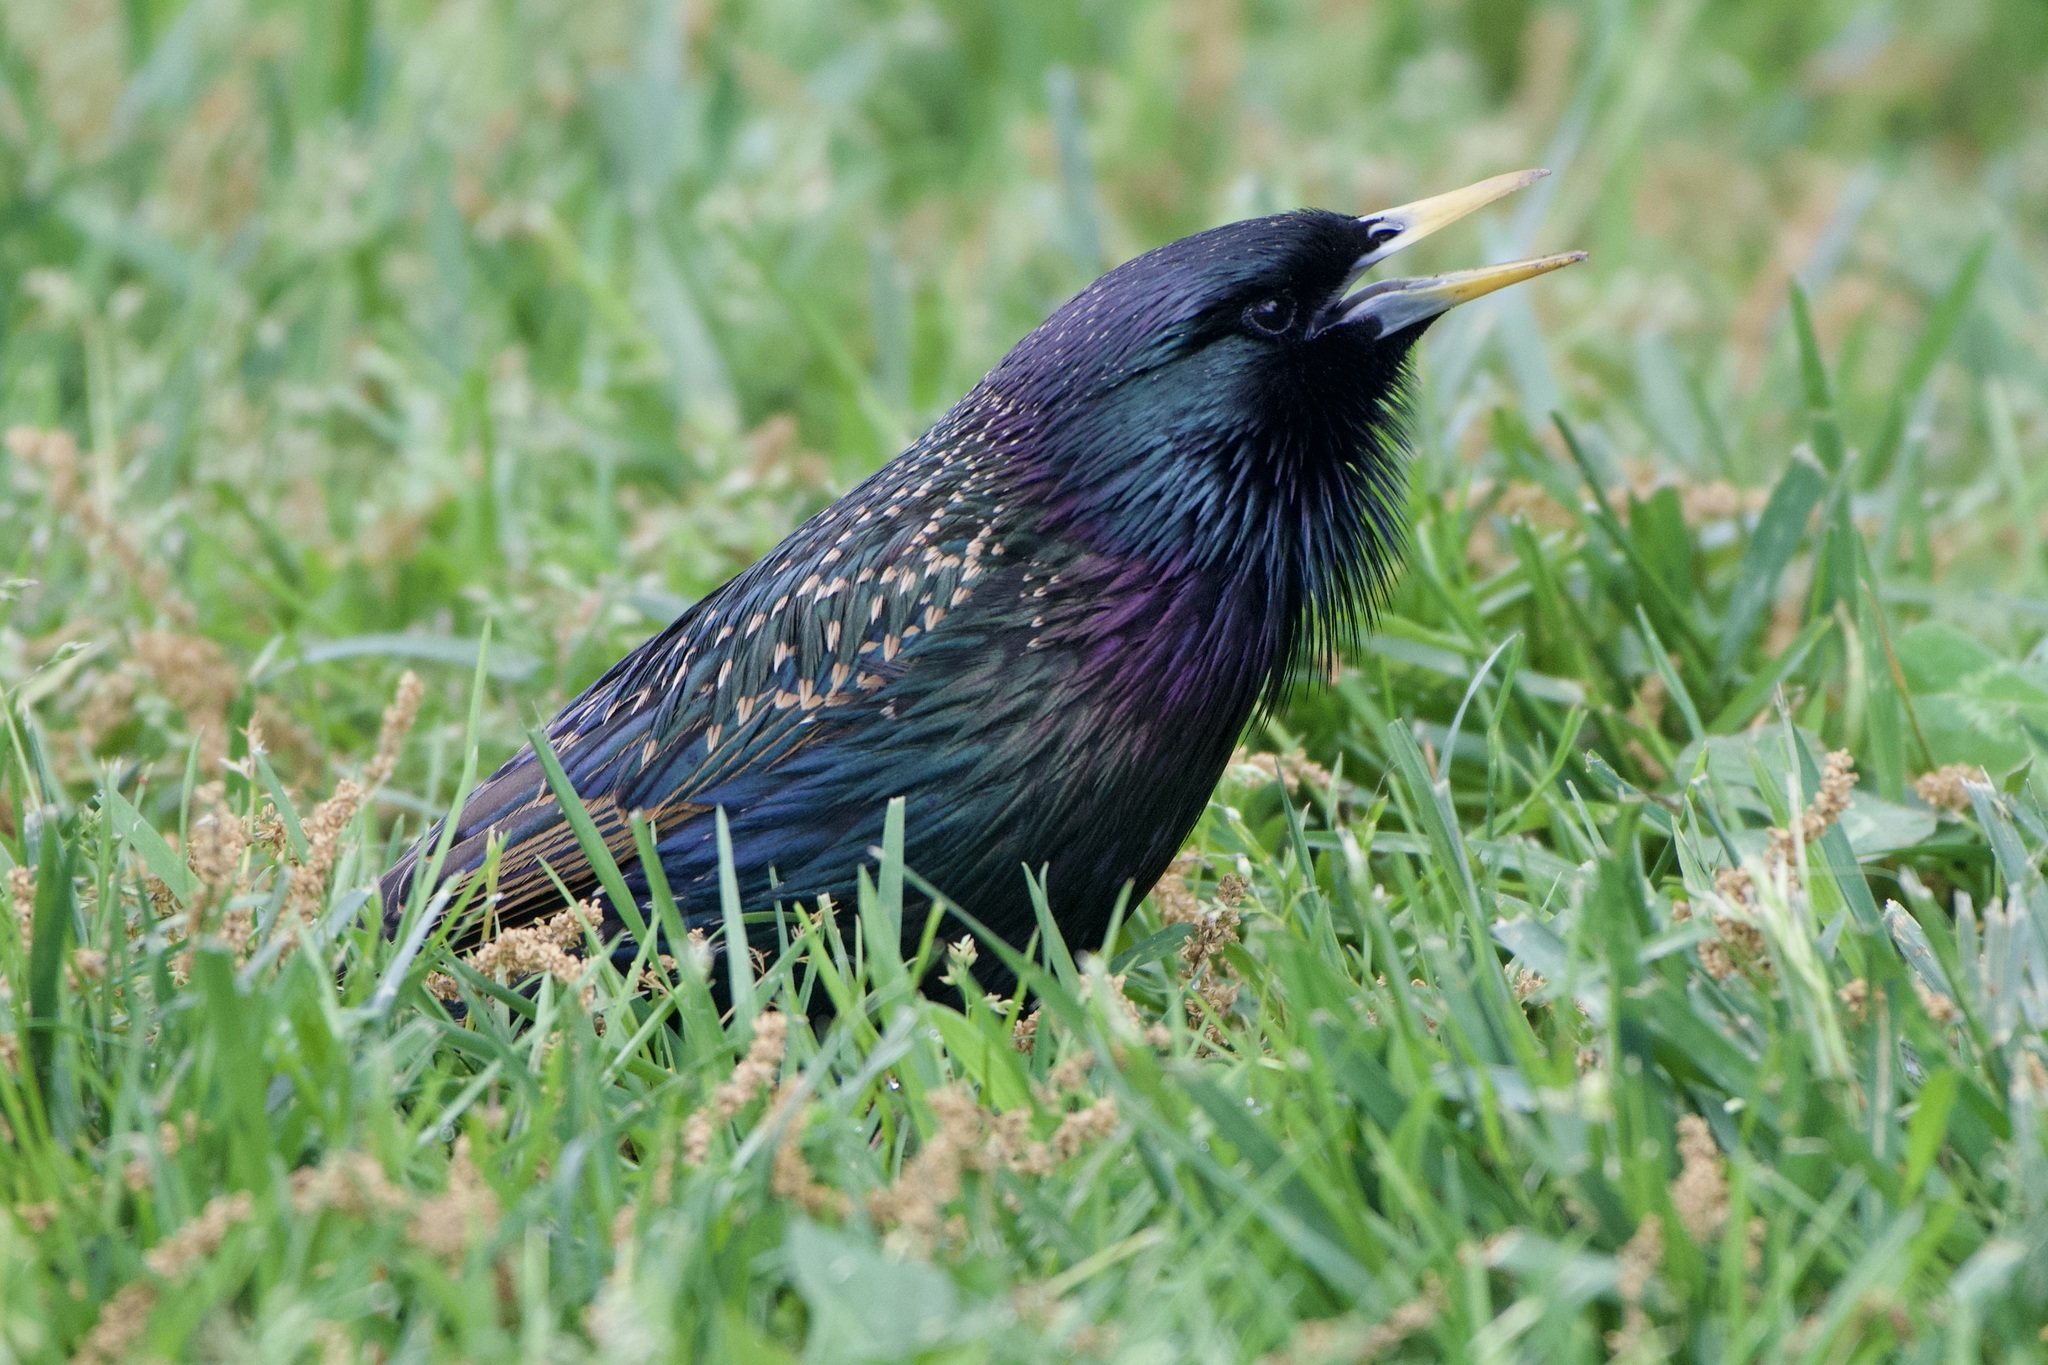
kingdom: Animalia
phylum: Chordata
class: Aves
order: Passeriformes
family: Sturnidae
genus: Sturnus
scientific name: Sturnus vulgaris
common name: Common starling
